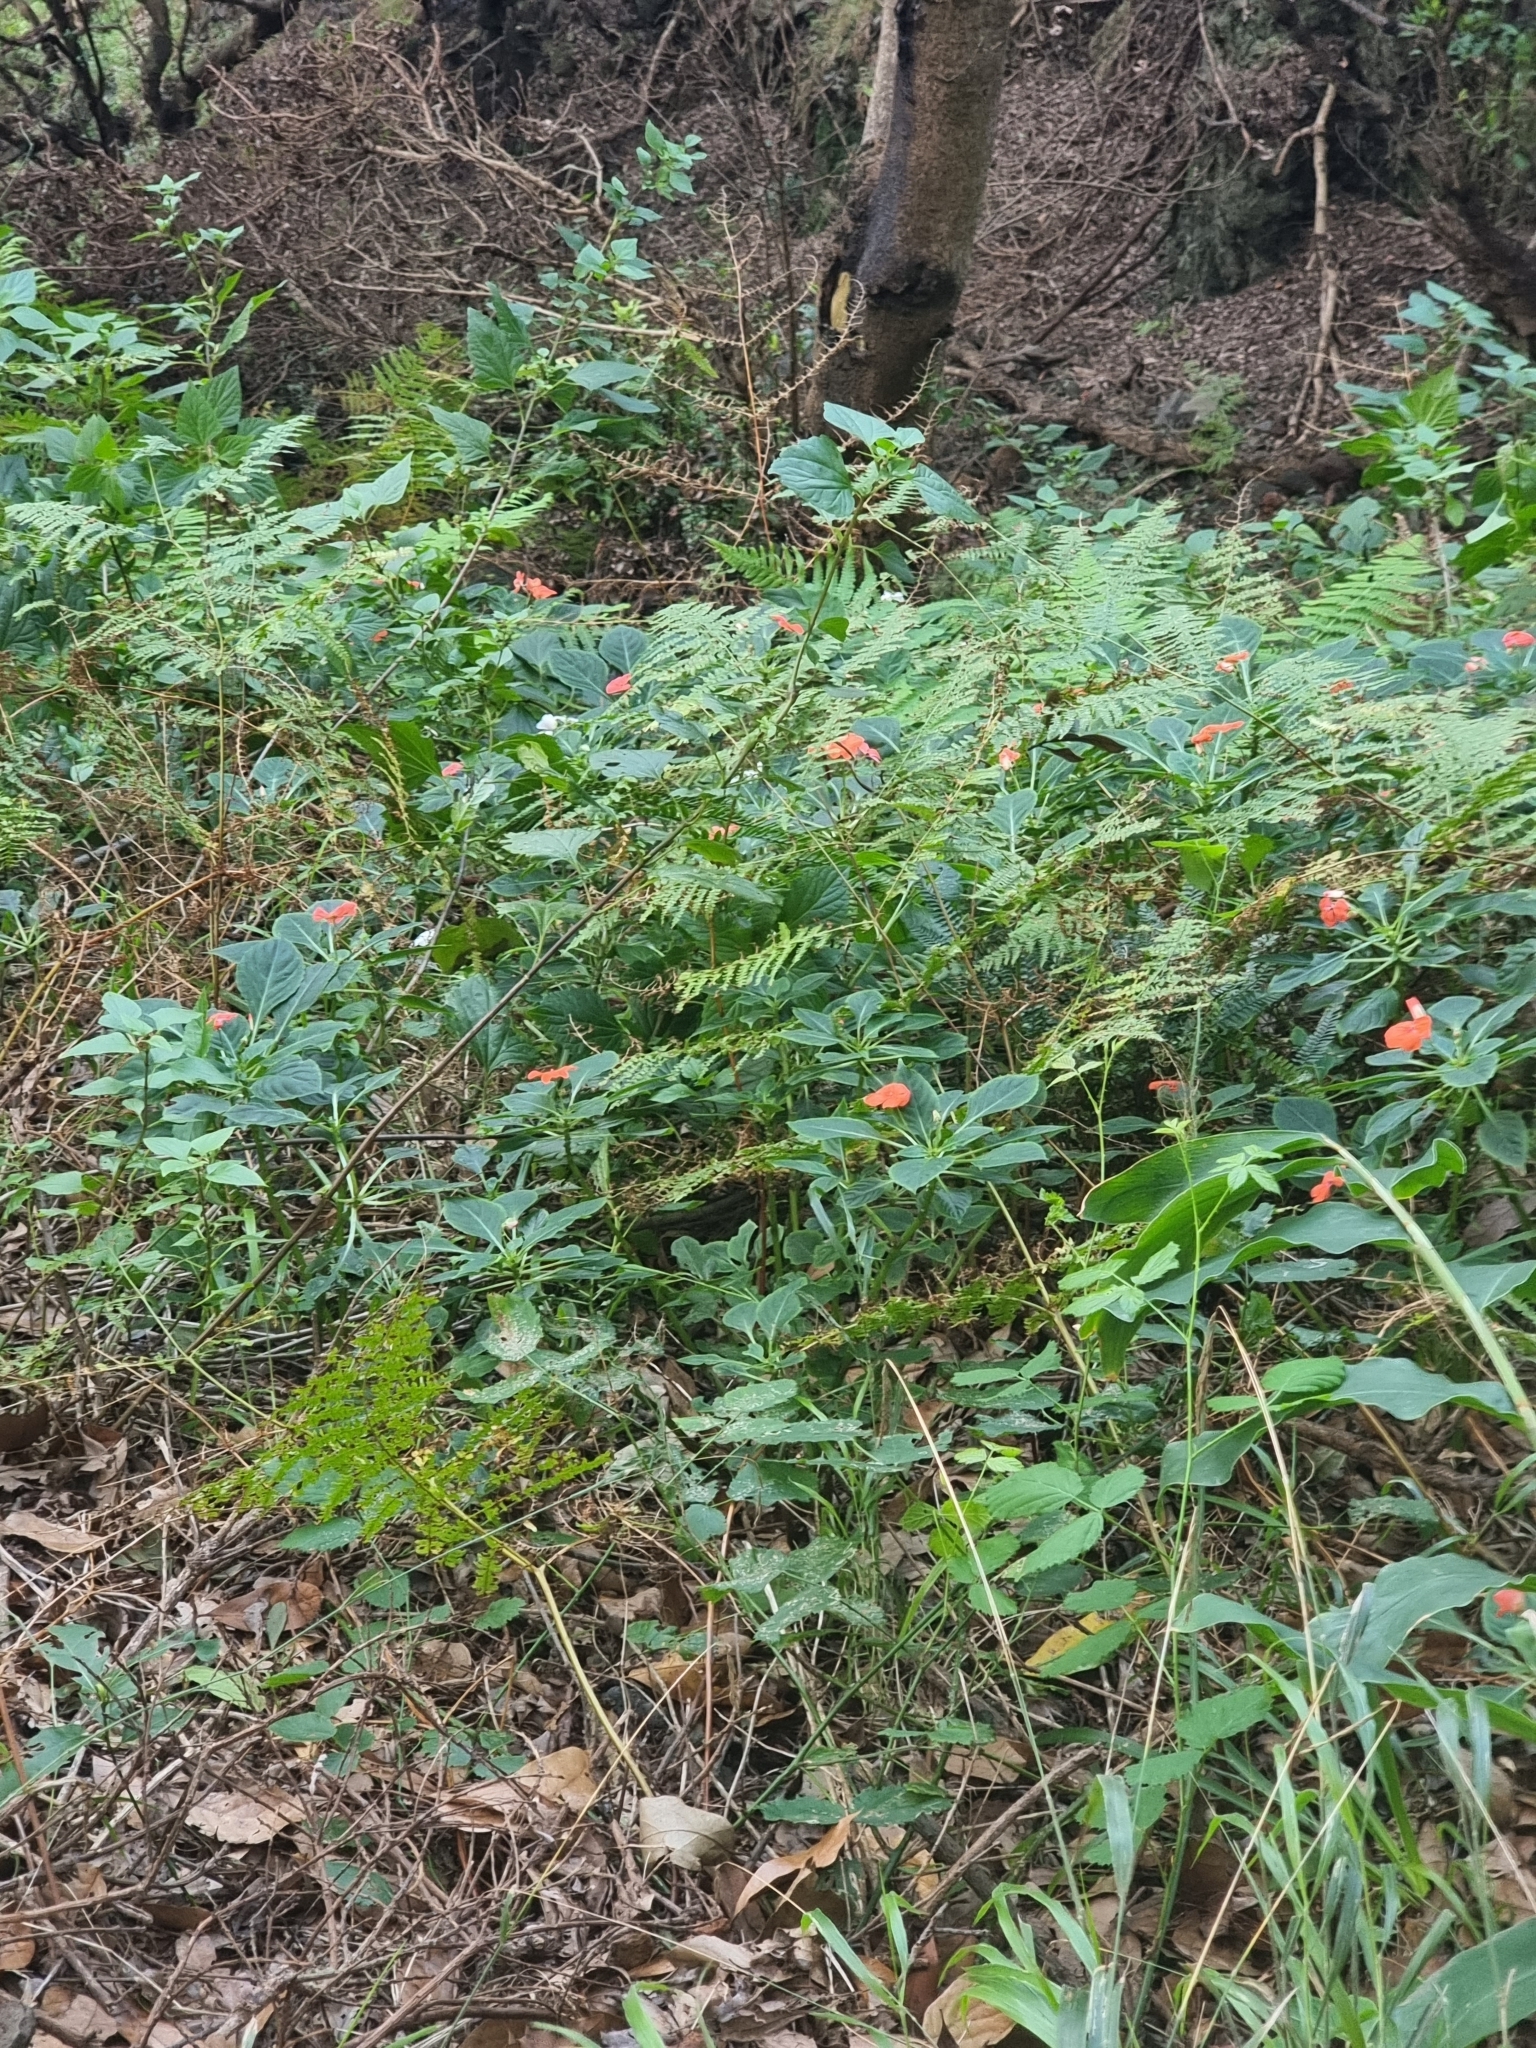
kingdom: Plantae
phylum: Tracheophyta
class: Magnoliopsida
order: Ericales
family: Balsaminaceae
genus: Impatiens
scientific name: Impatiens walleriana
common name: Buzzy lizzy
